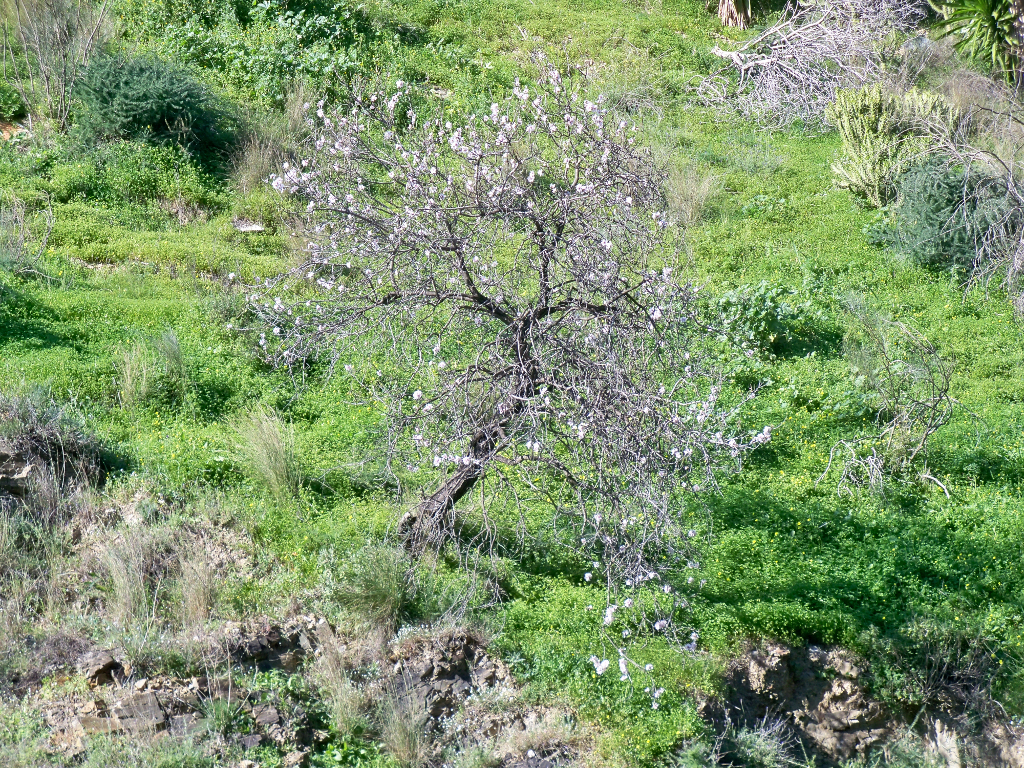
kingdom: Plantae
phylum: Tracheophyta
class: Magnoliopsida
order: Rosales
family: Rosaceae
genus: Prunus
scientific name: Prunus amygdalus
